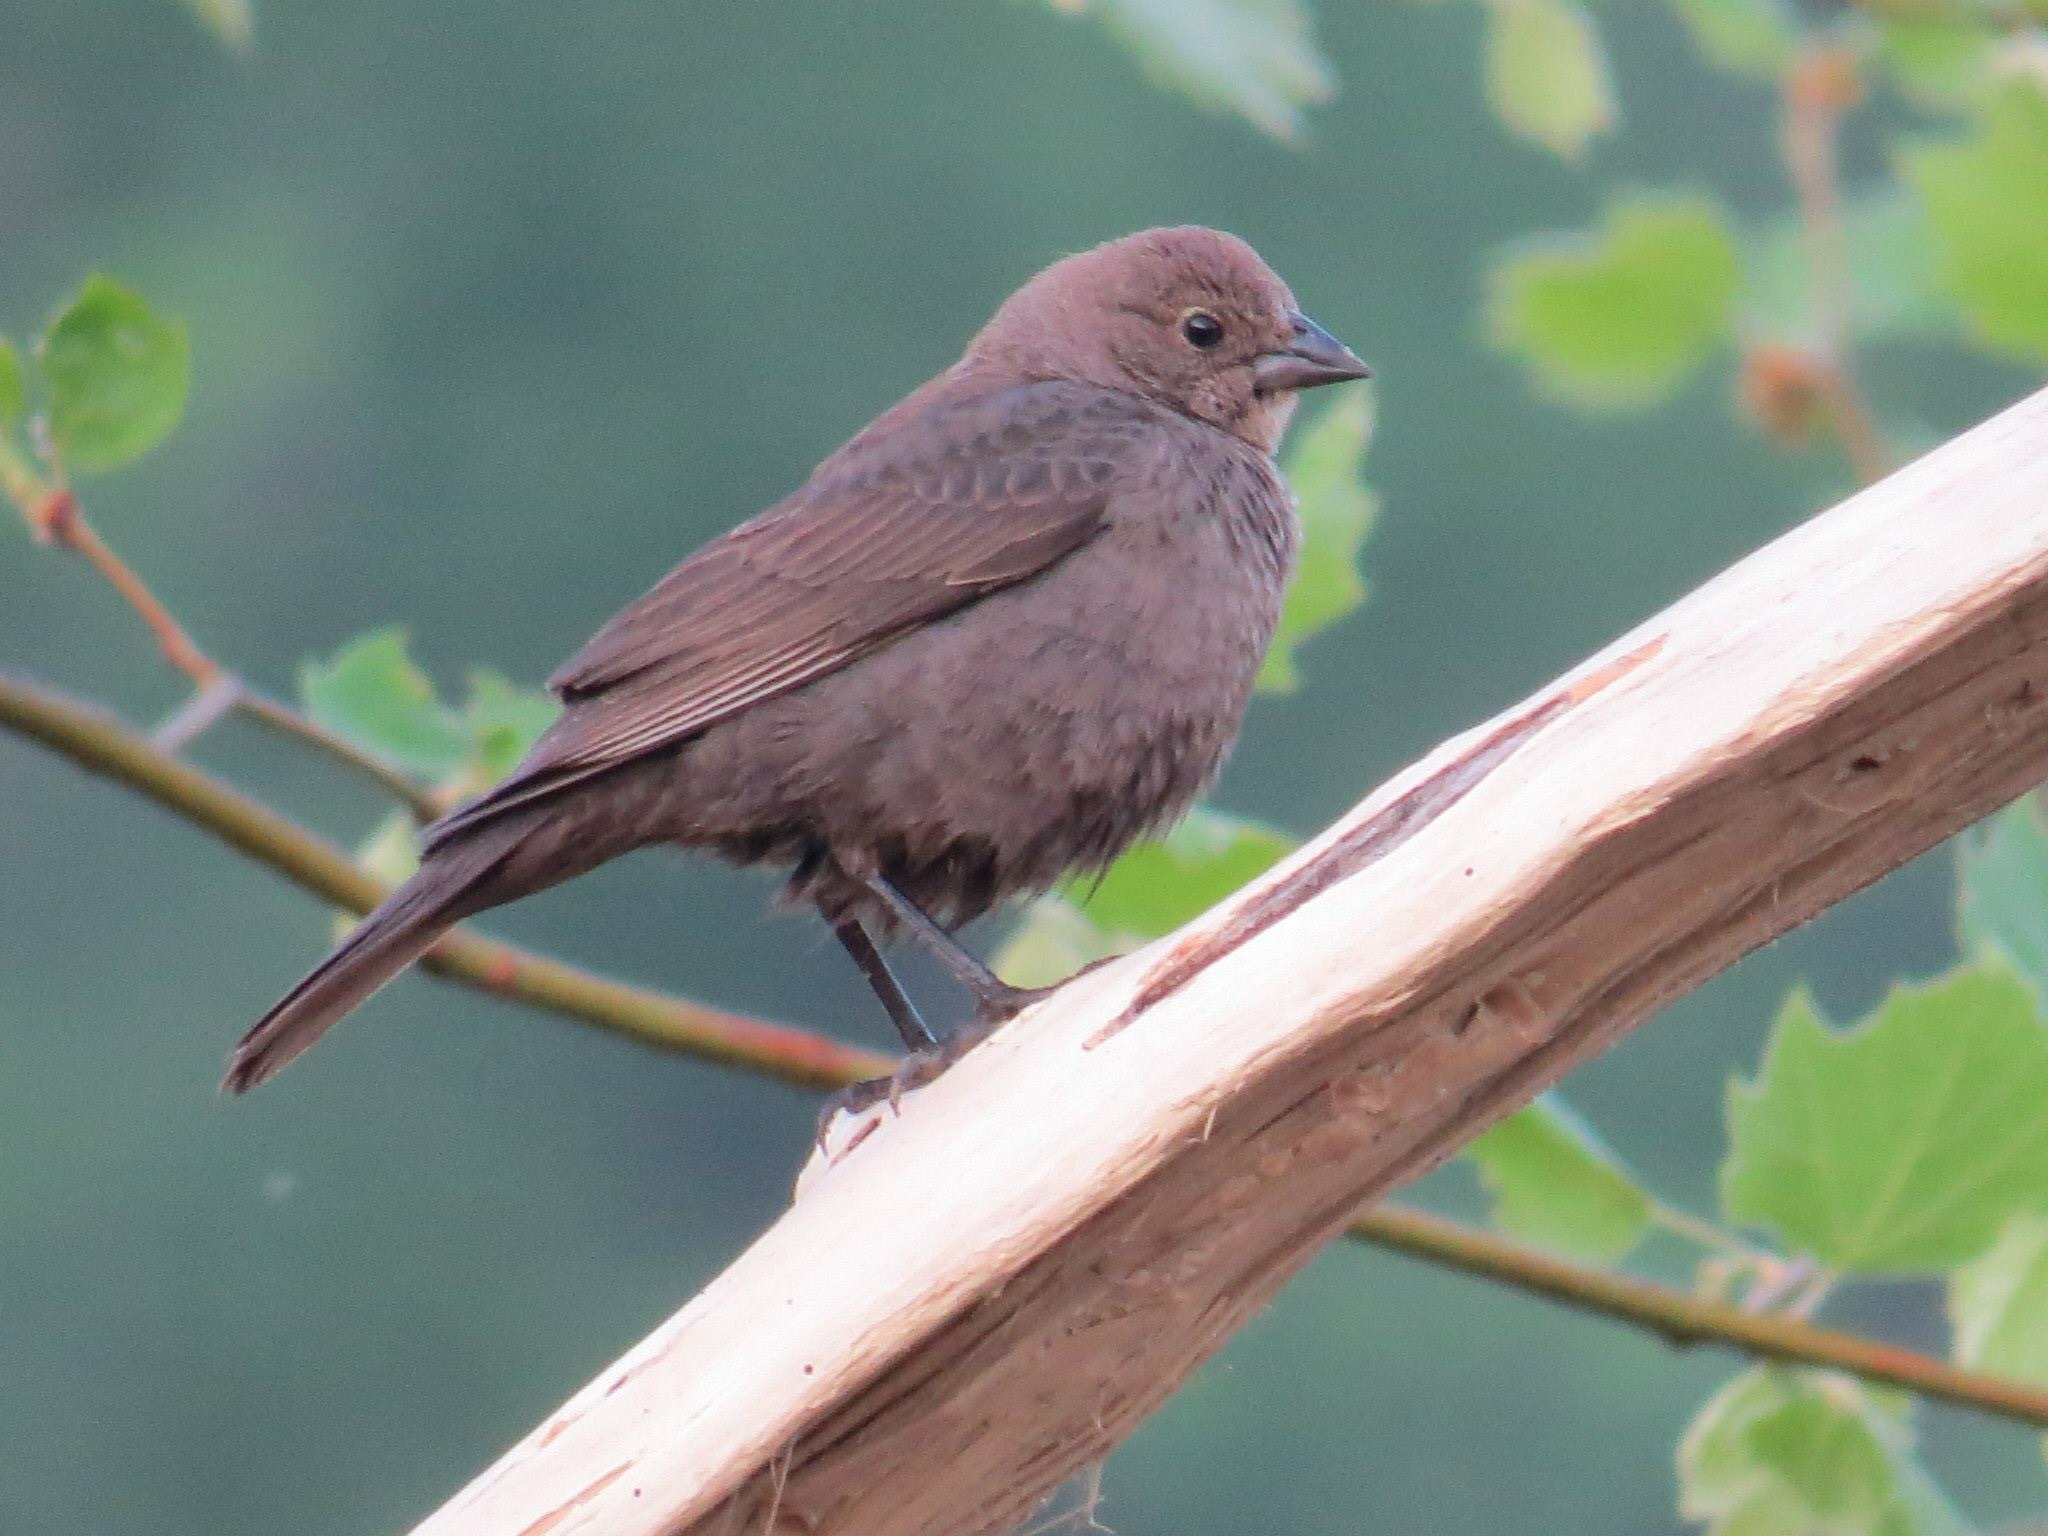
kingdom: Animalia
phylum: Chordata
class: Aves
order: Passeriformes
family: Icteridae
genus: Molothrus
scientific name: Molothrus ater
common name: Brown-headed cowbird
